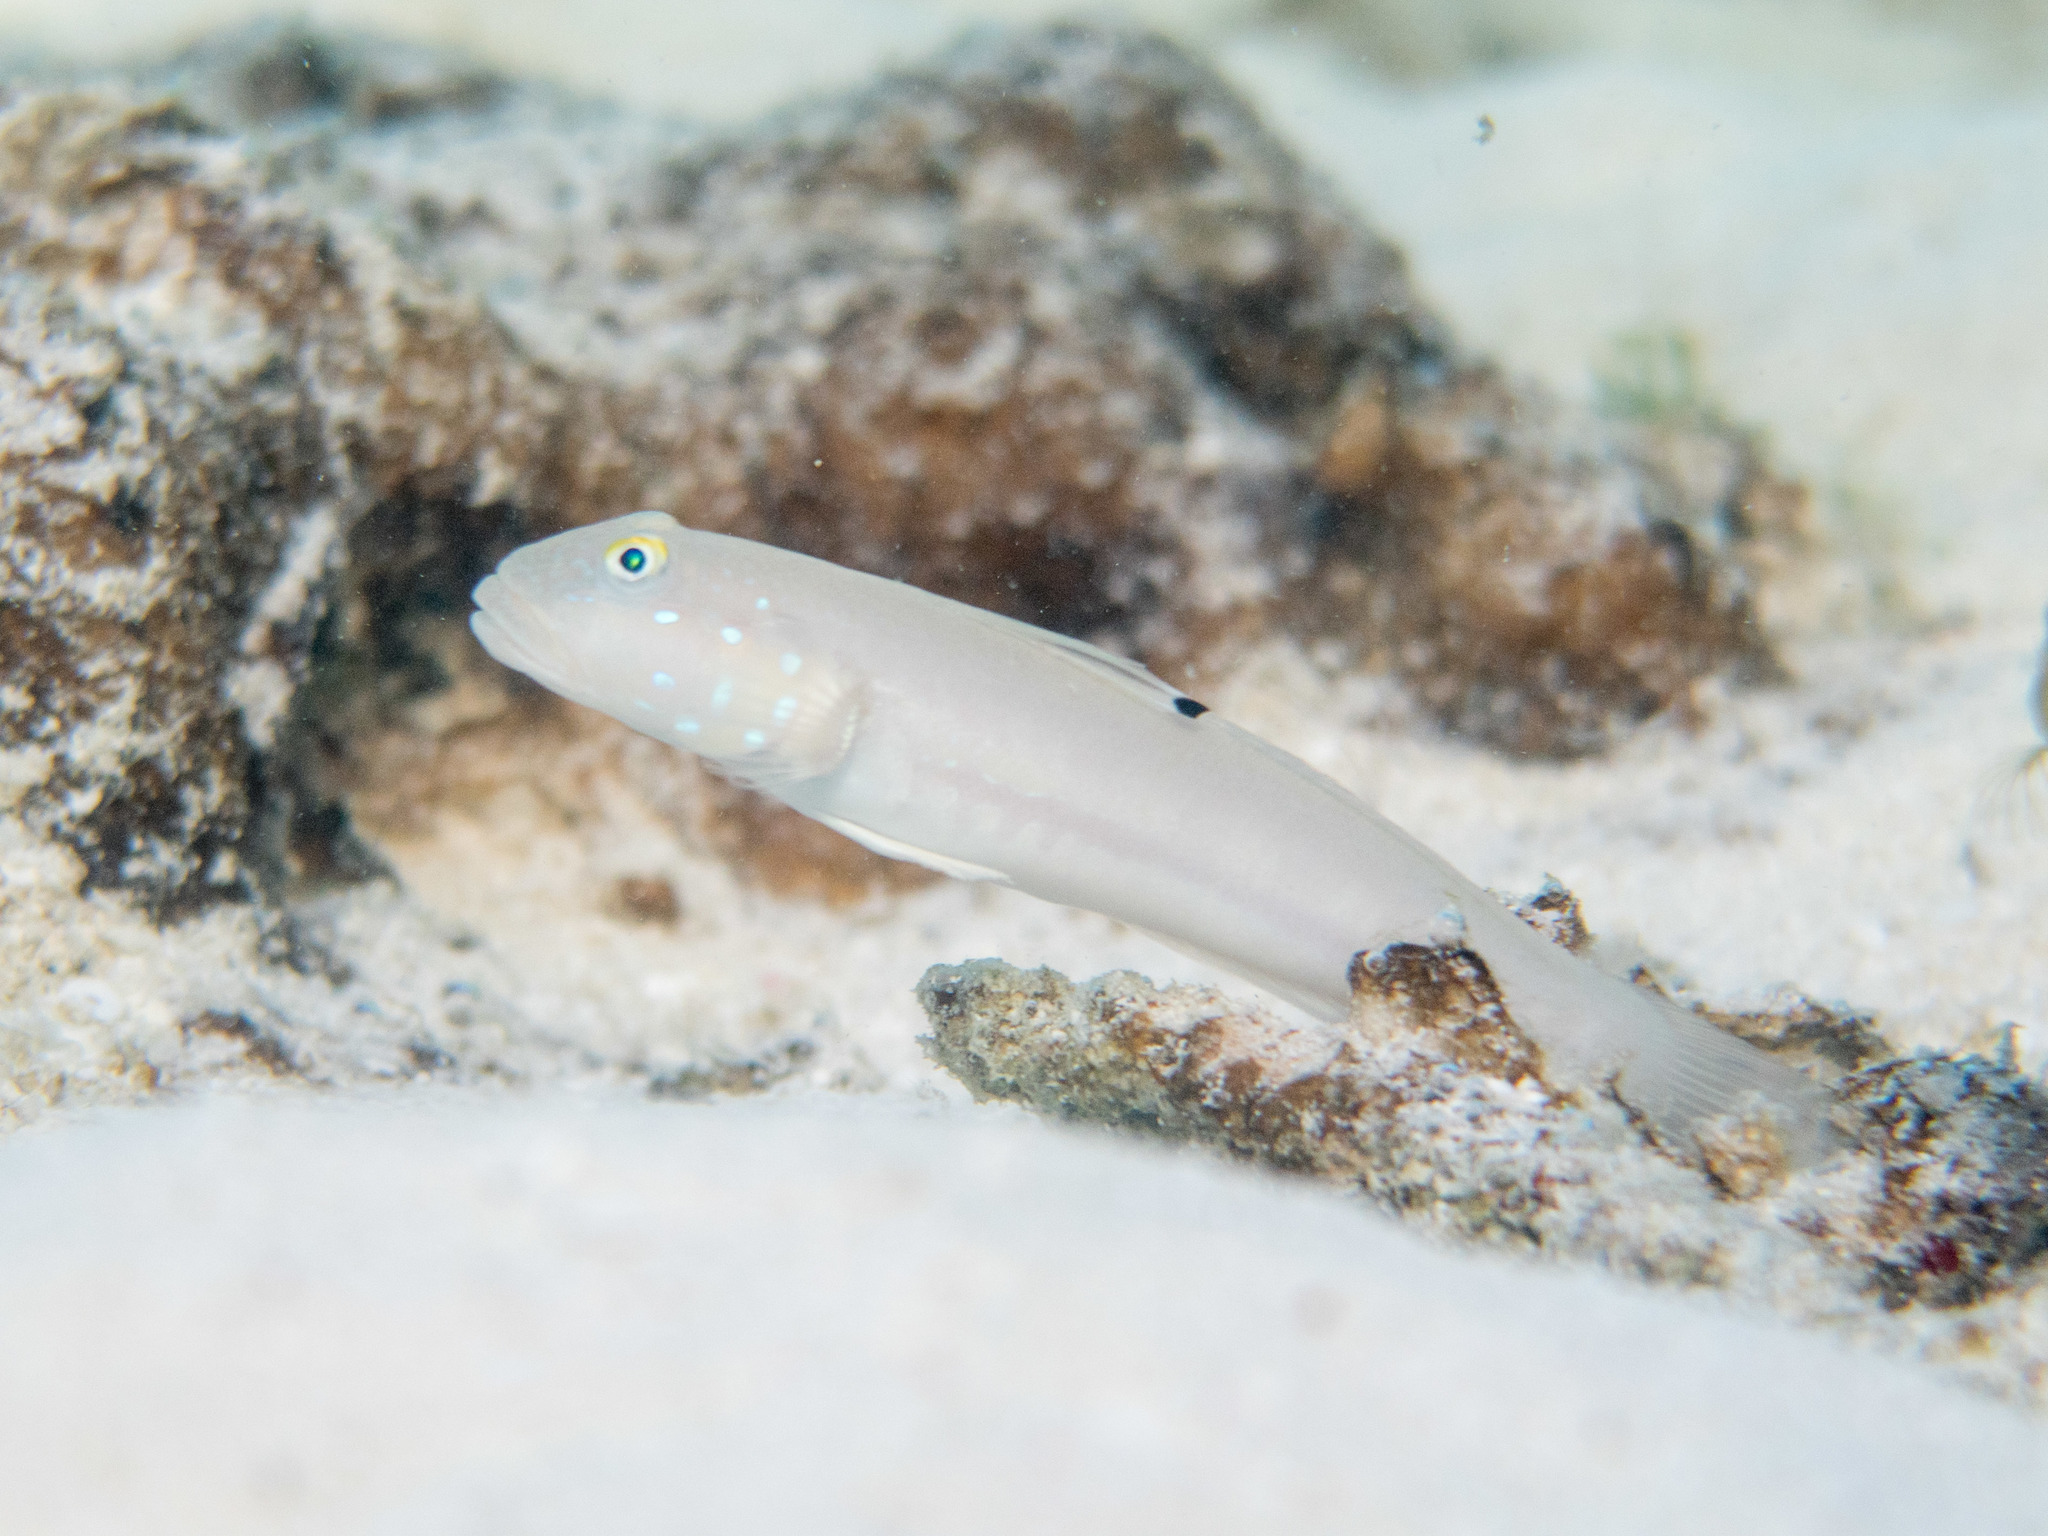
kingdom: Animalia
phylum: Chordata
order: Perciformes
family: Gobiidae
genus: Valenciennea
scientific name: Valenciennea sexguttata
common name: Sixspot goby
